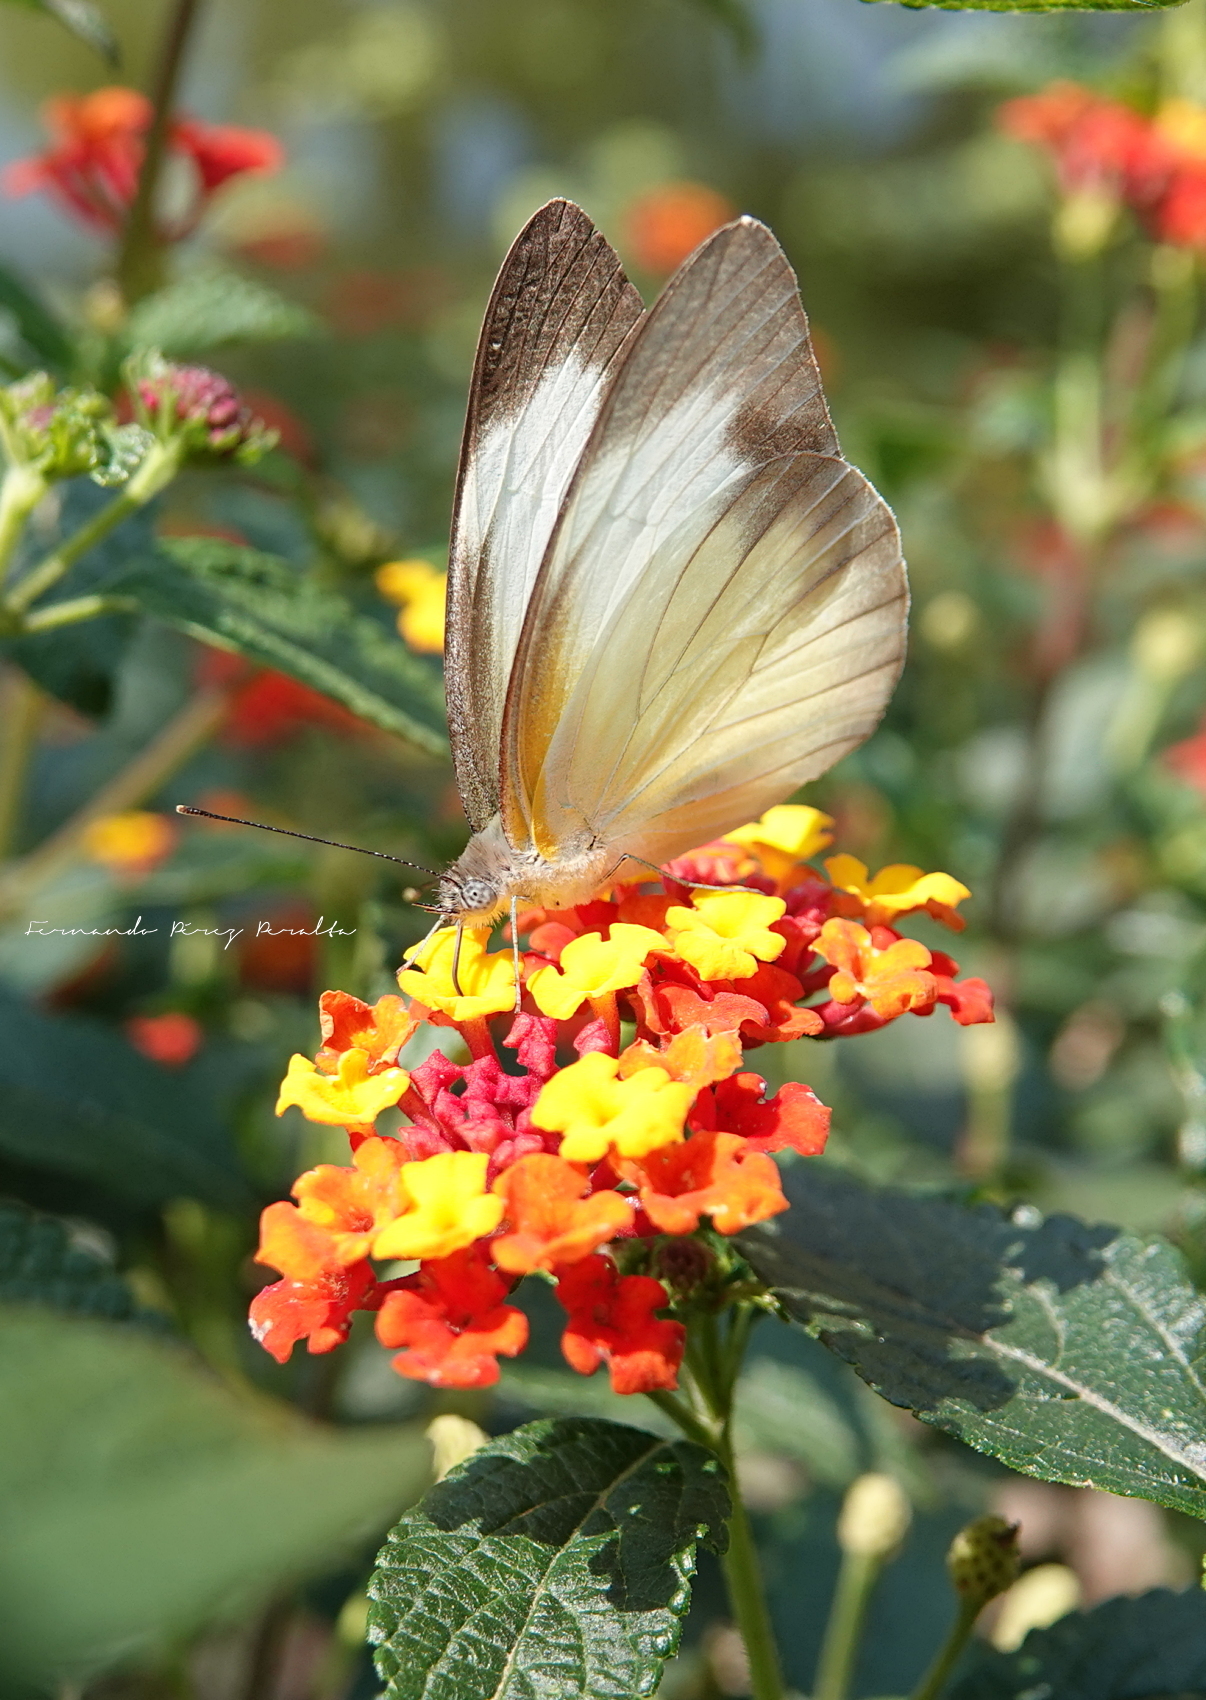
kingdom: Animalia
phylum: Arthropoda
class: Insecta
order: Lepidoptera
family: Pieridae
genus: Glutophrissa
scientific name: Glutophrissa drusilla
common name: Florida white
